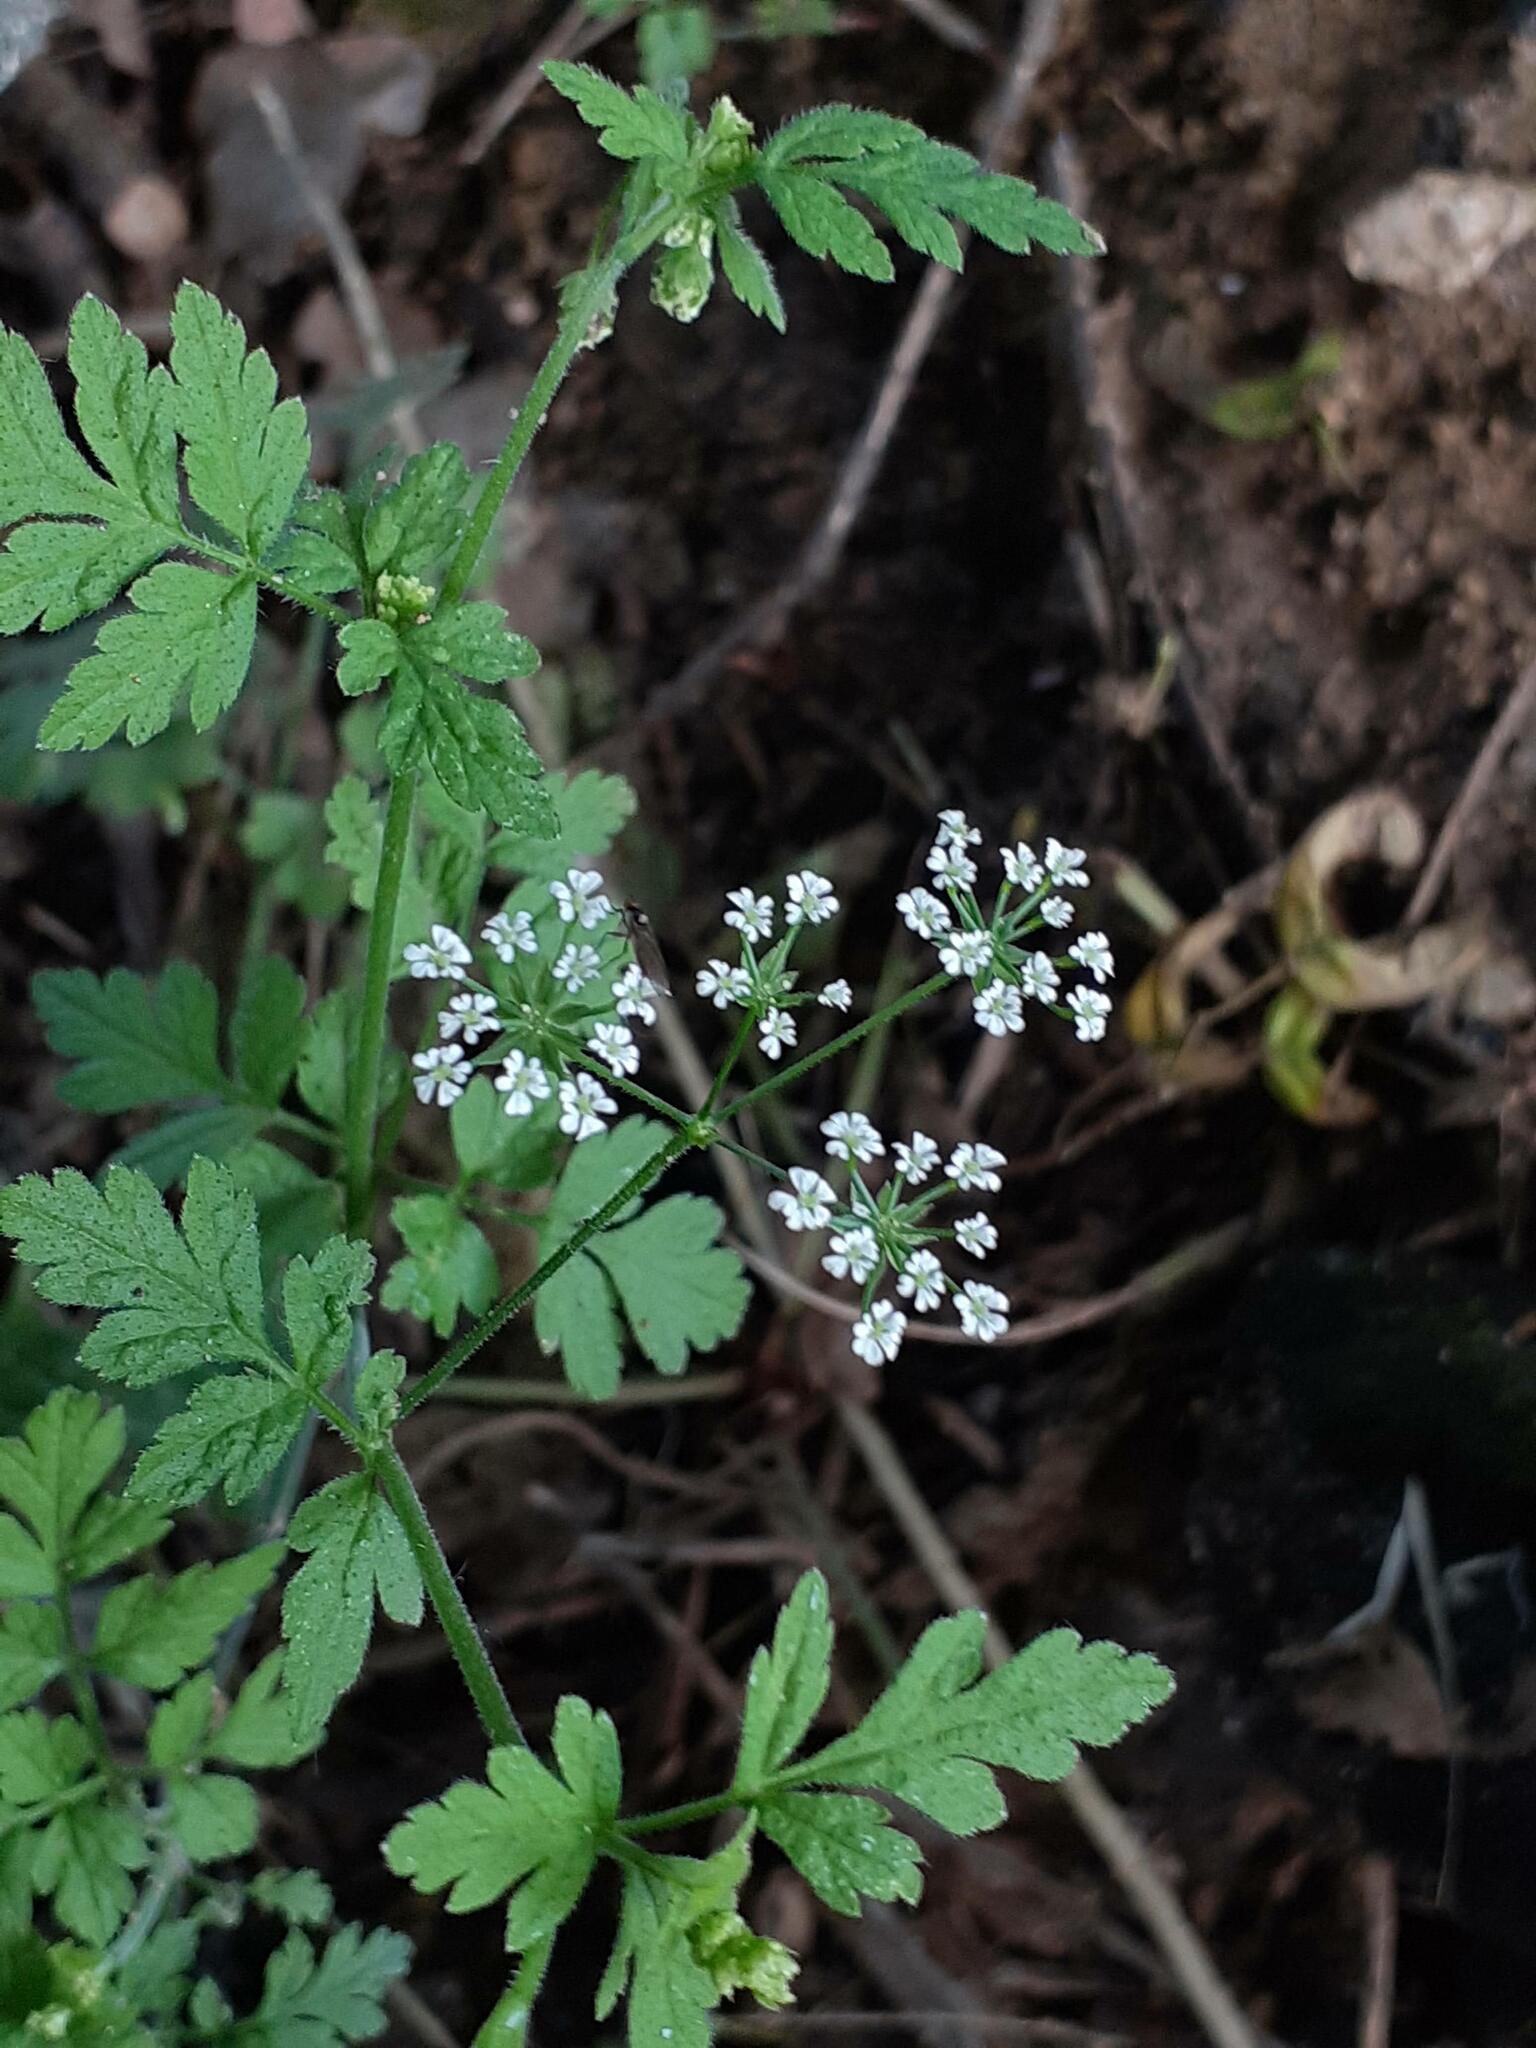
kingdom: Plantae
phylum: Tracheophyta
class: Magnoliopsida
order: Apiales
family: Apiaceae
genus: Chaerophyllum
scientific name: Chaerophyllum temulum
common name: Rough chervil
